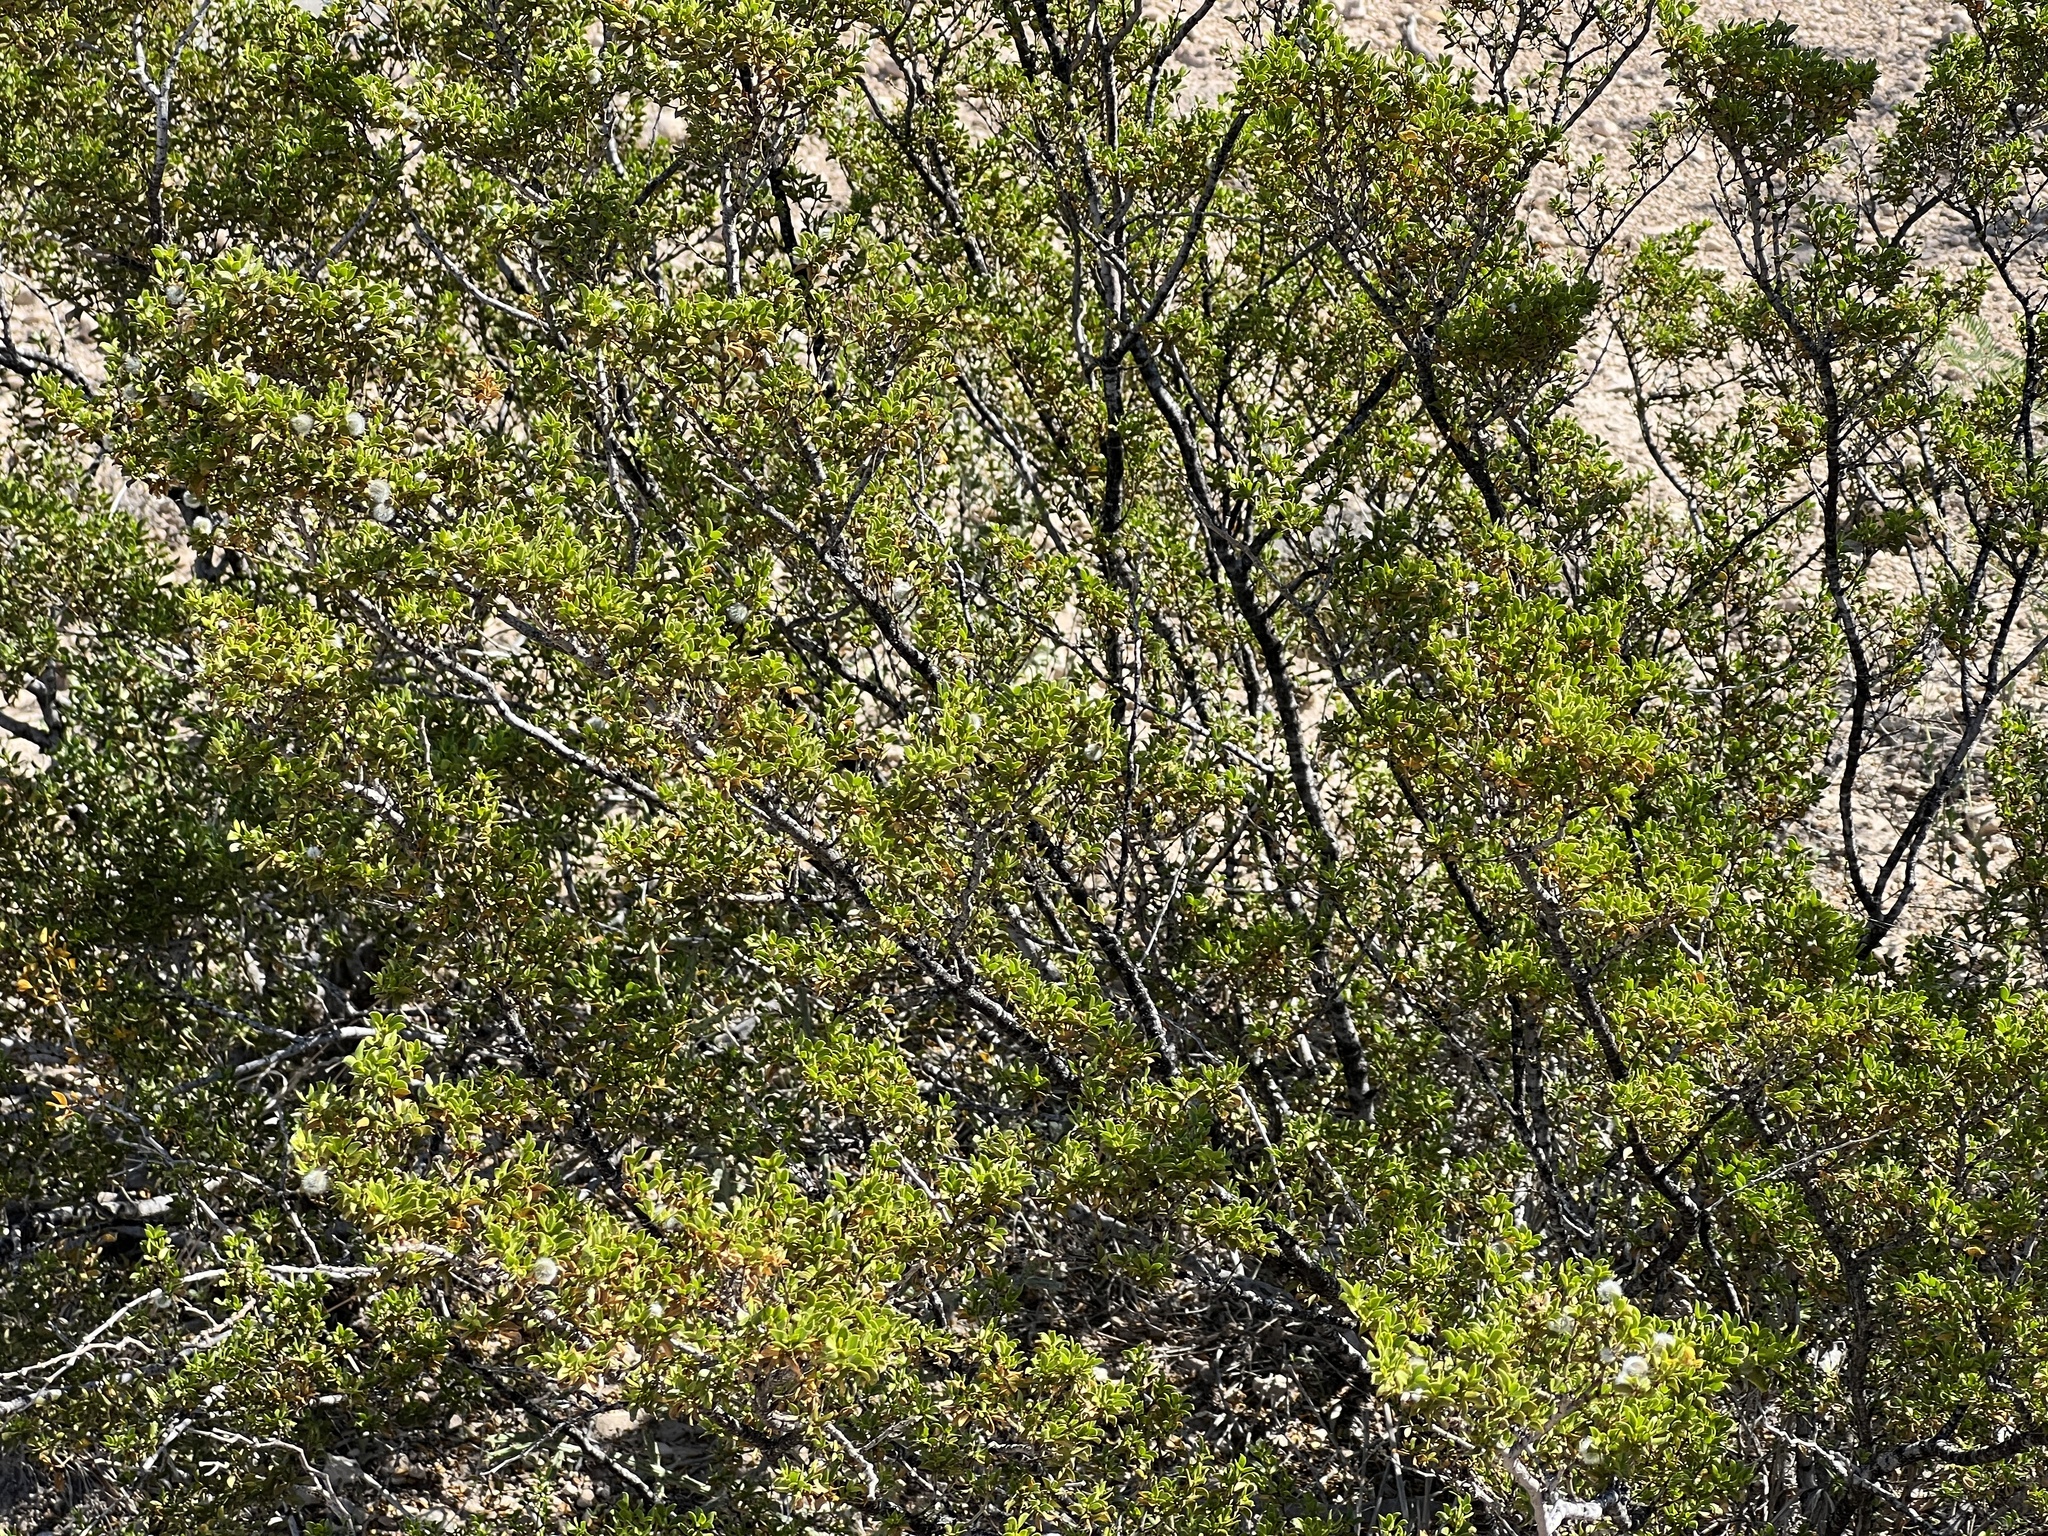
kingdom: Plantae
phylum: Tracheophyta
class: Magnoliopsida
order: Zygophyllales
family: Zygophyllaceae
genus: Larrea
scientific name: Larrea tridentata
